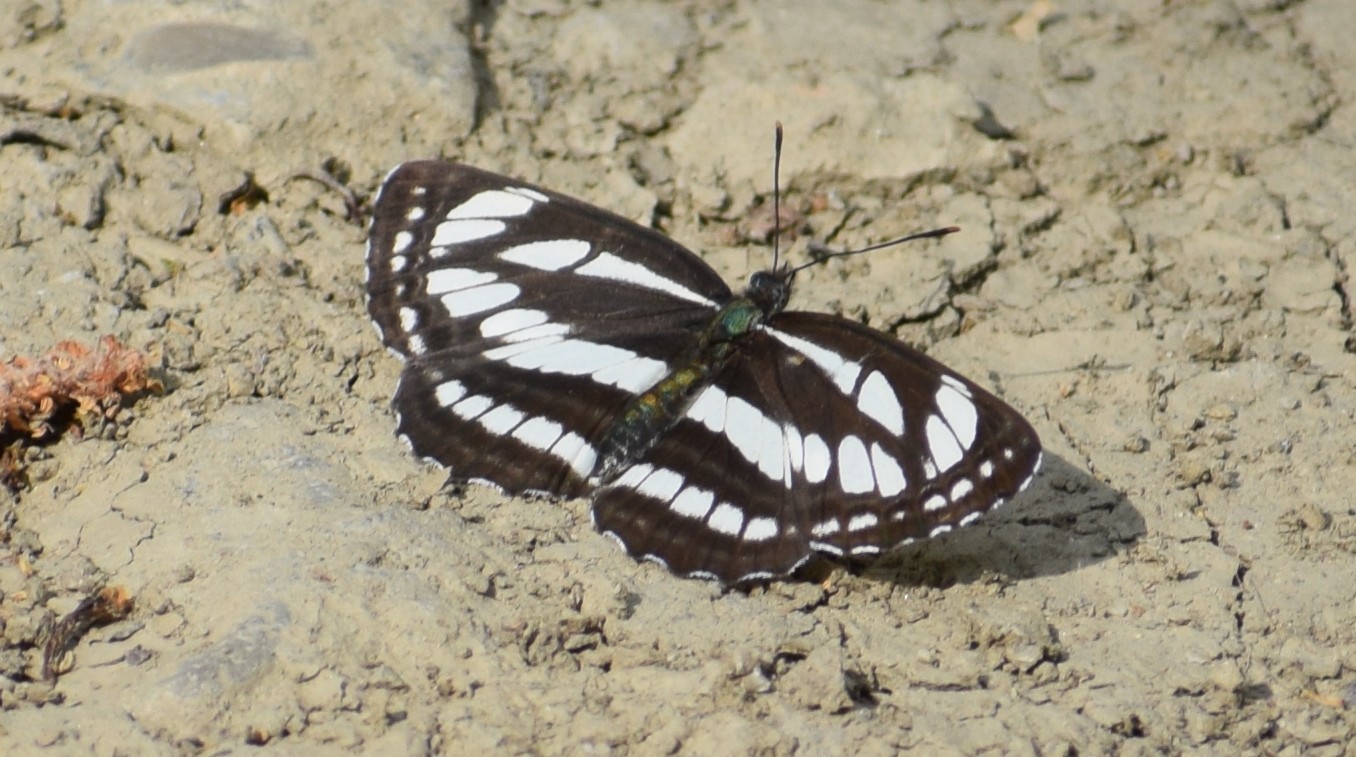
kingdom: Animalia
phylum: Arthropoda
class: Insecta
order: Lepidoptera
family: Nymphalidae
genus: Neptis
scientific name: Neptis sappho
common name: Common glider
